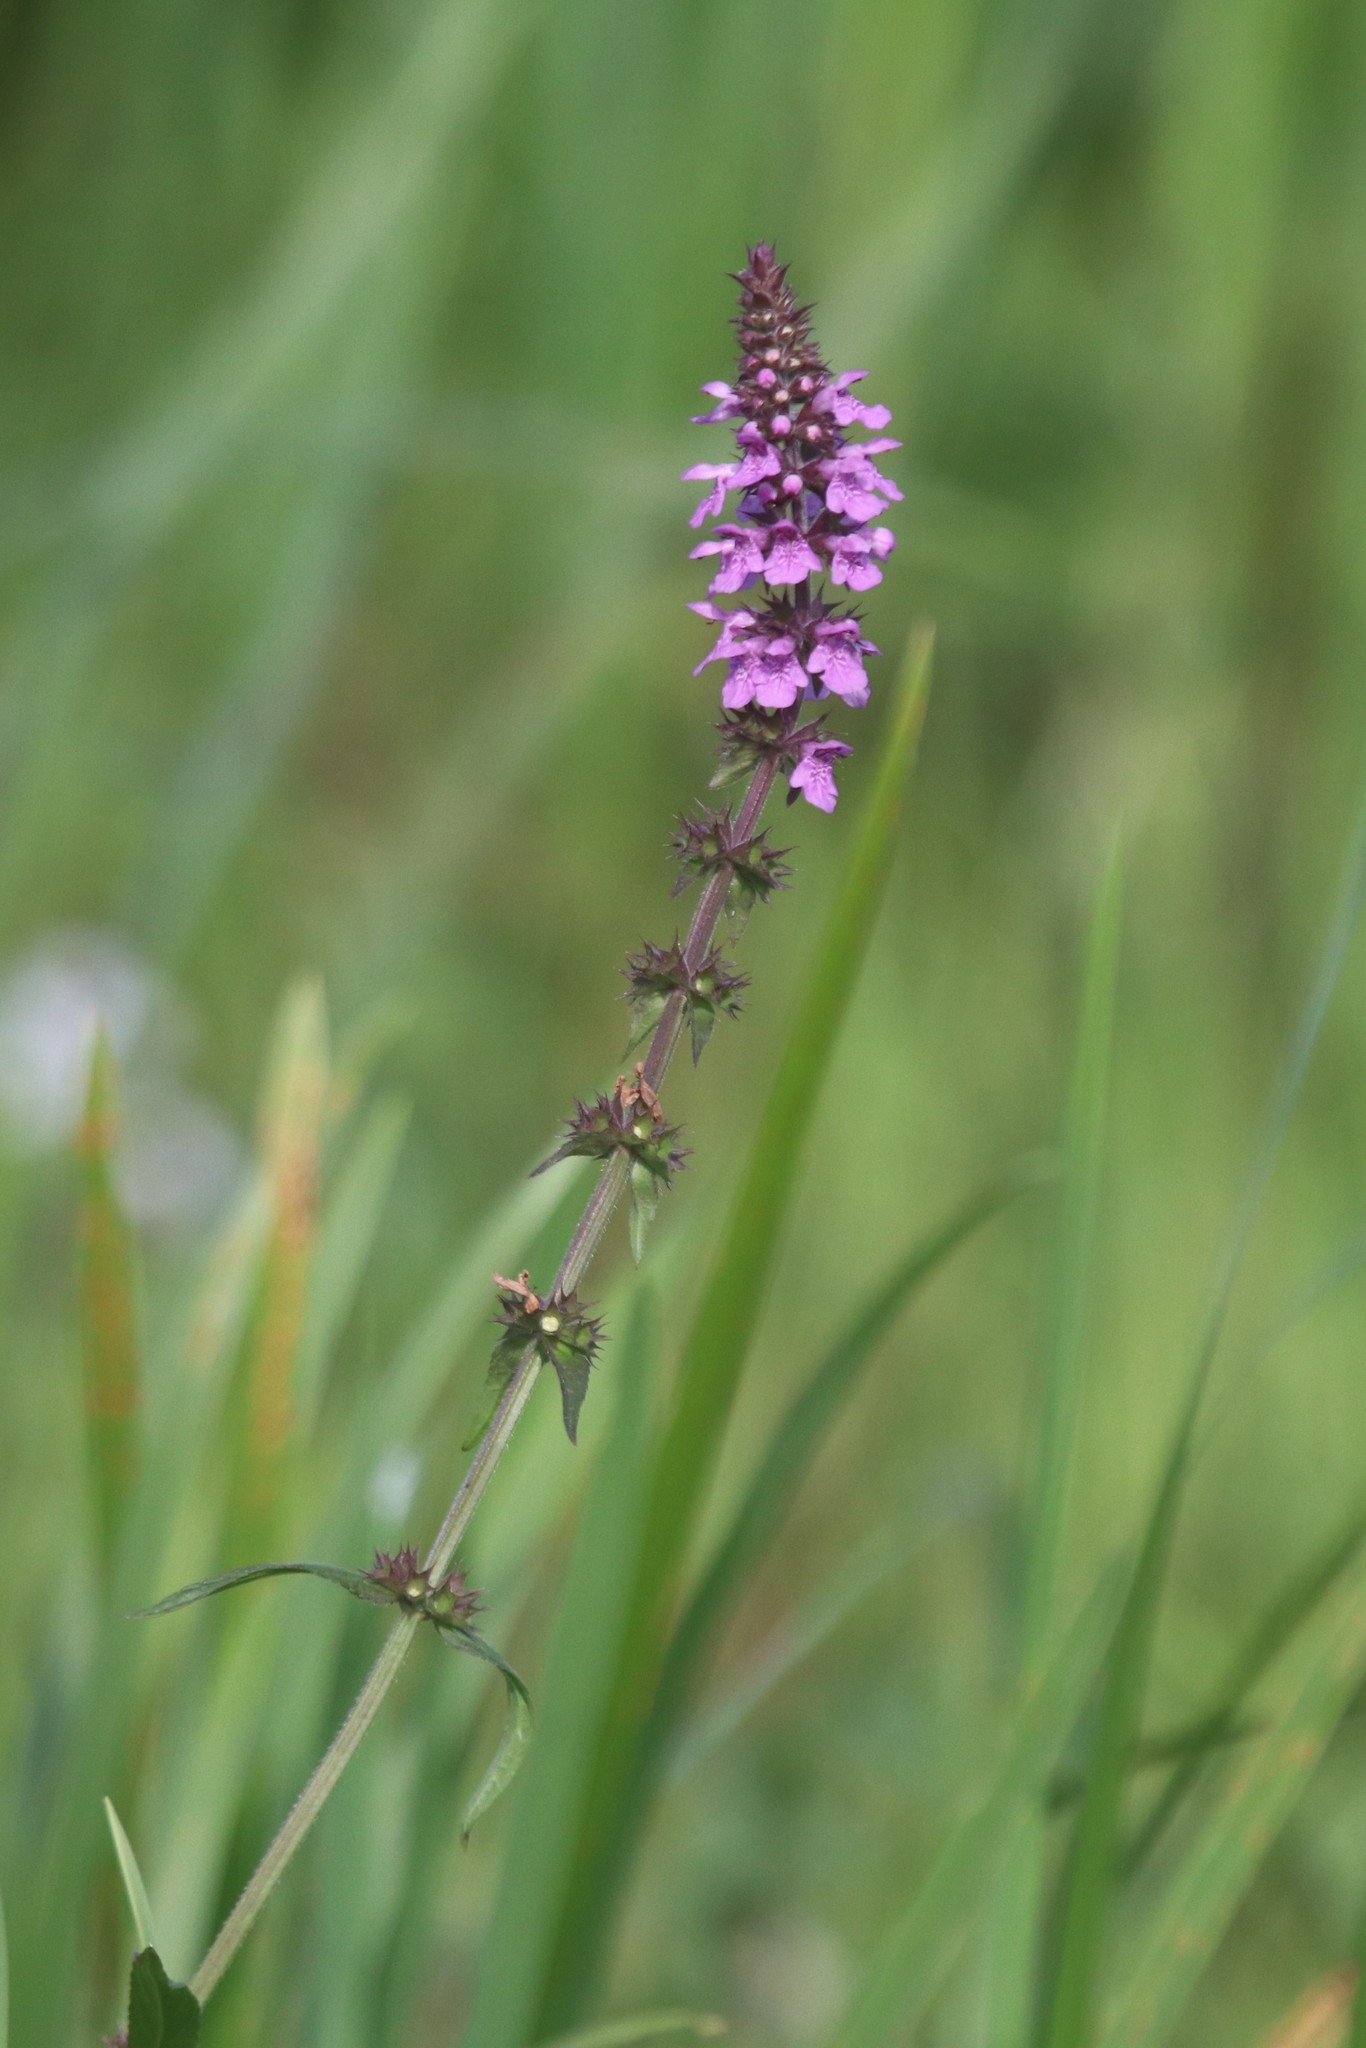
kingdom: Plantae
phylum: Tracheophyta
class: Magnoliopsida
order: Lamiales
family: Lamiaceae
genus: Stachys
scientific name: Stachys palustris
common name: Marsh woundwort
